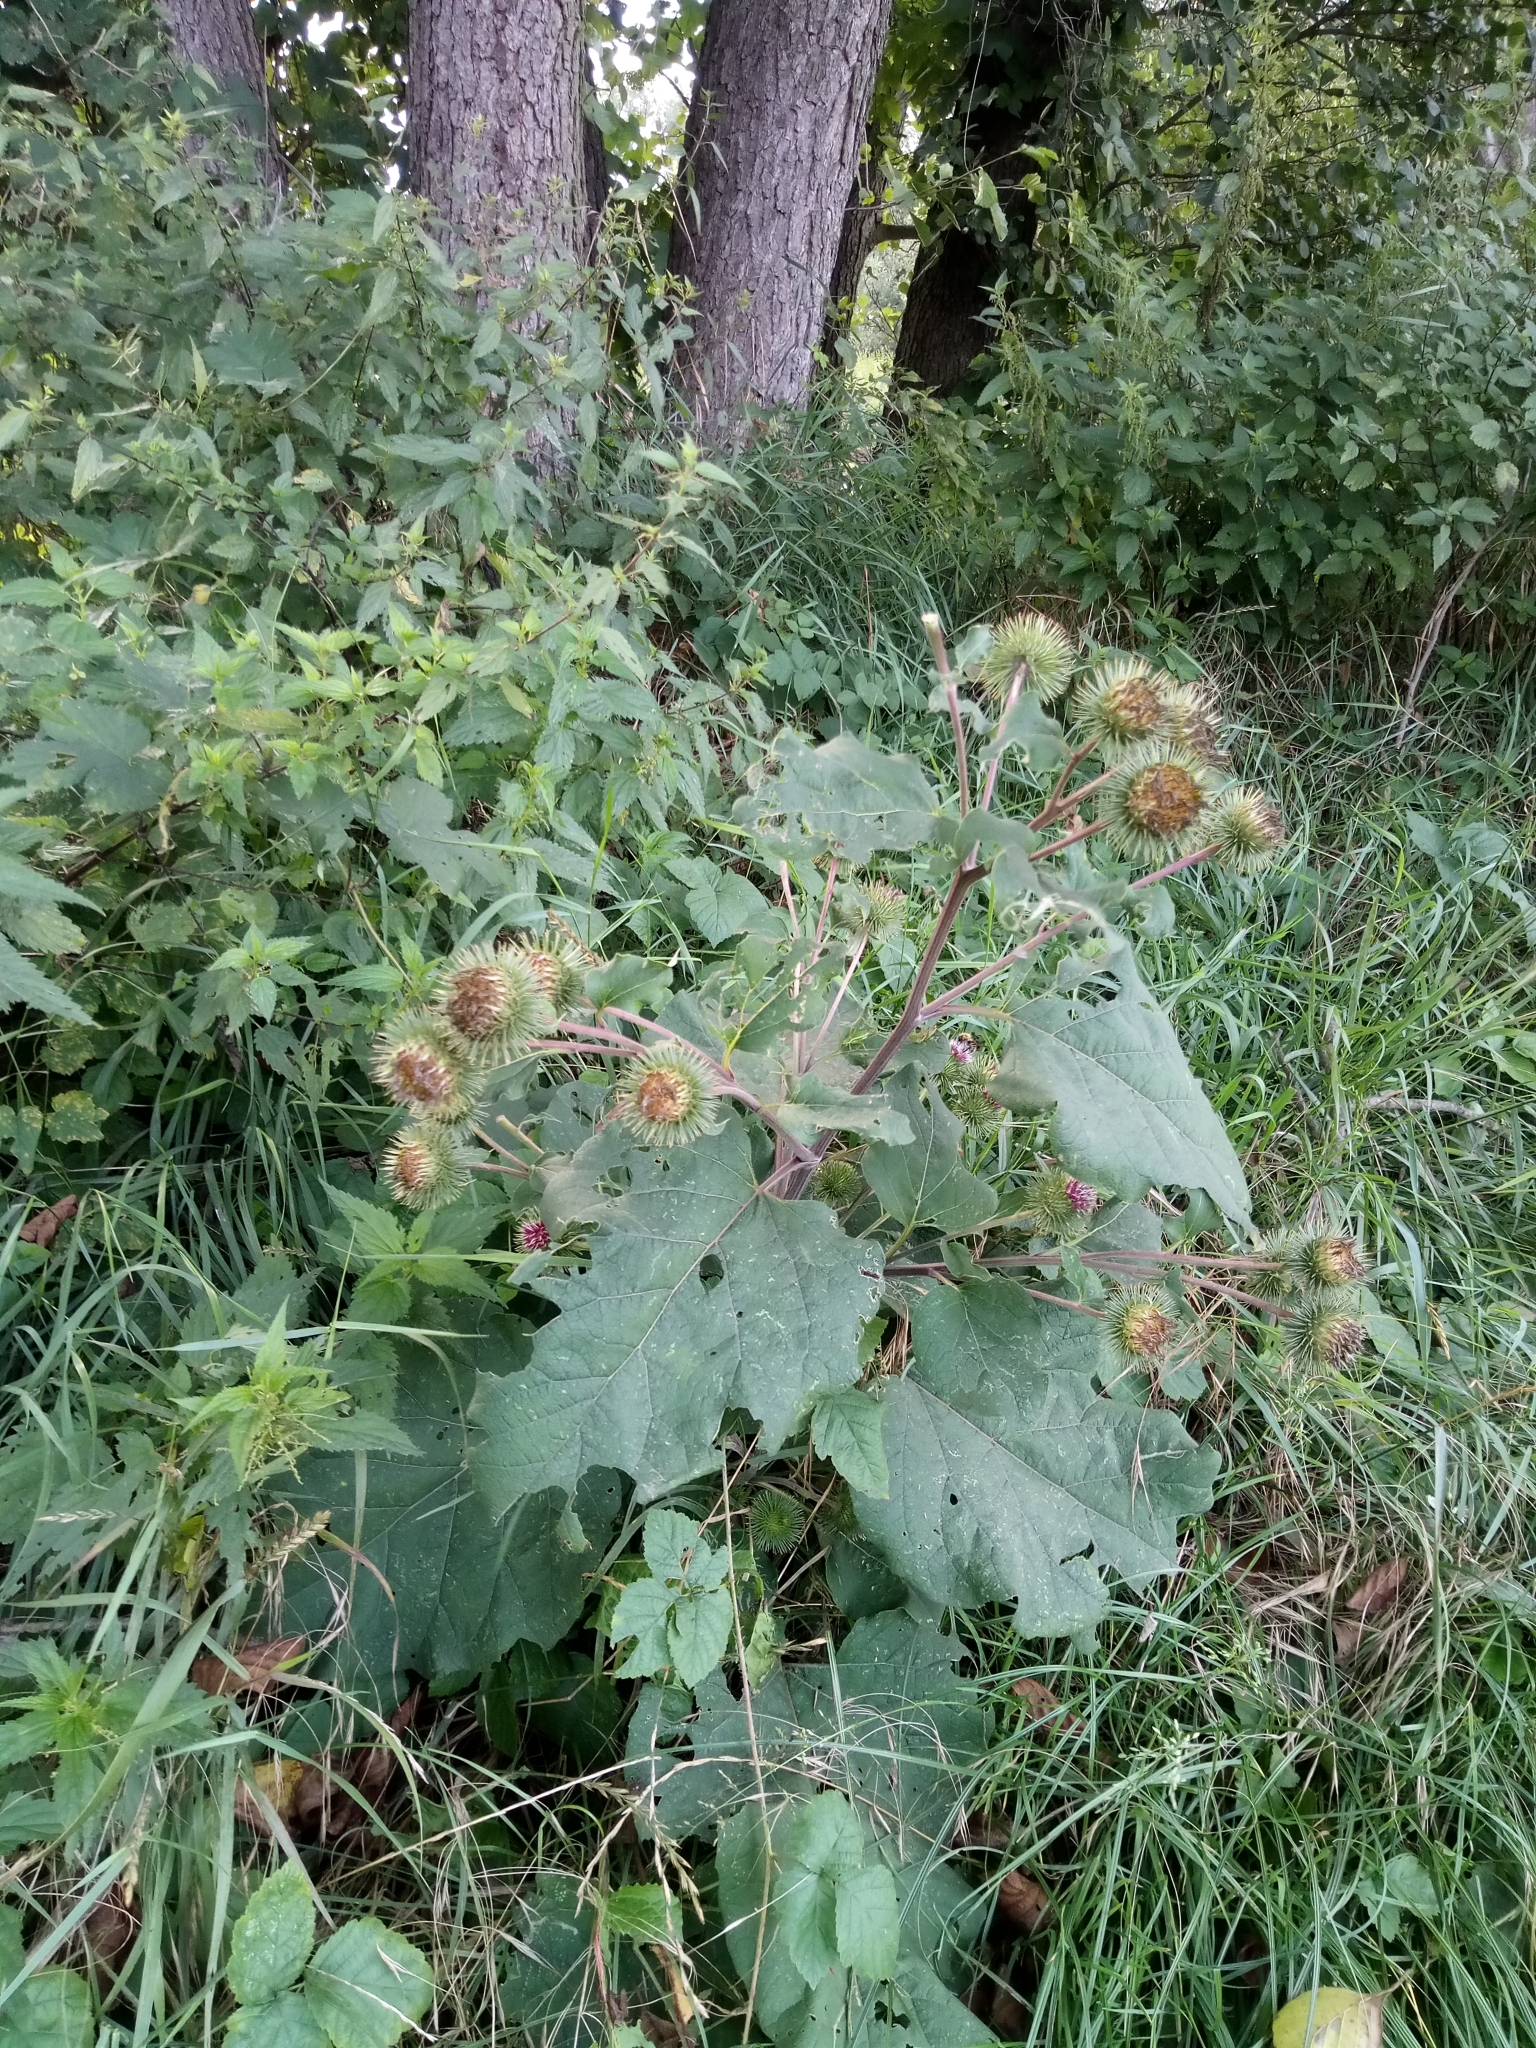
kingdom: Plantae
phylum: Tracheophyta
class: Magnoliopsida
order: Asterales
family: Asteraceae
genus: Arctium
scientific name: Arctium lappa
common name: Greater burdock
